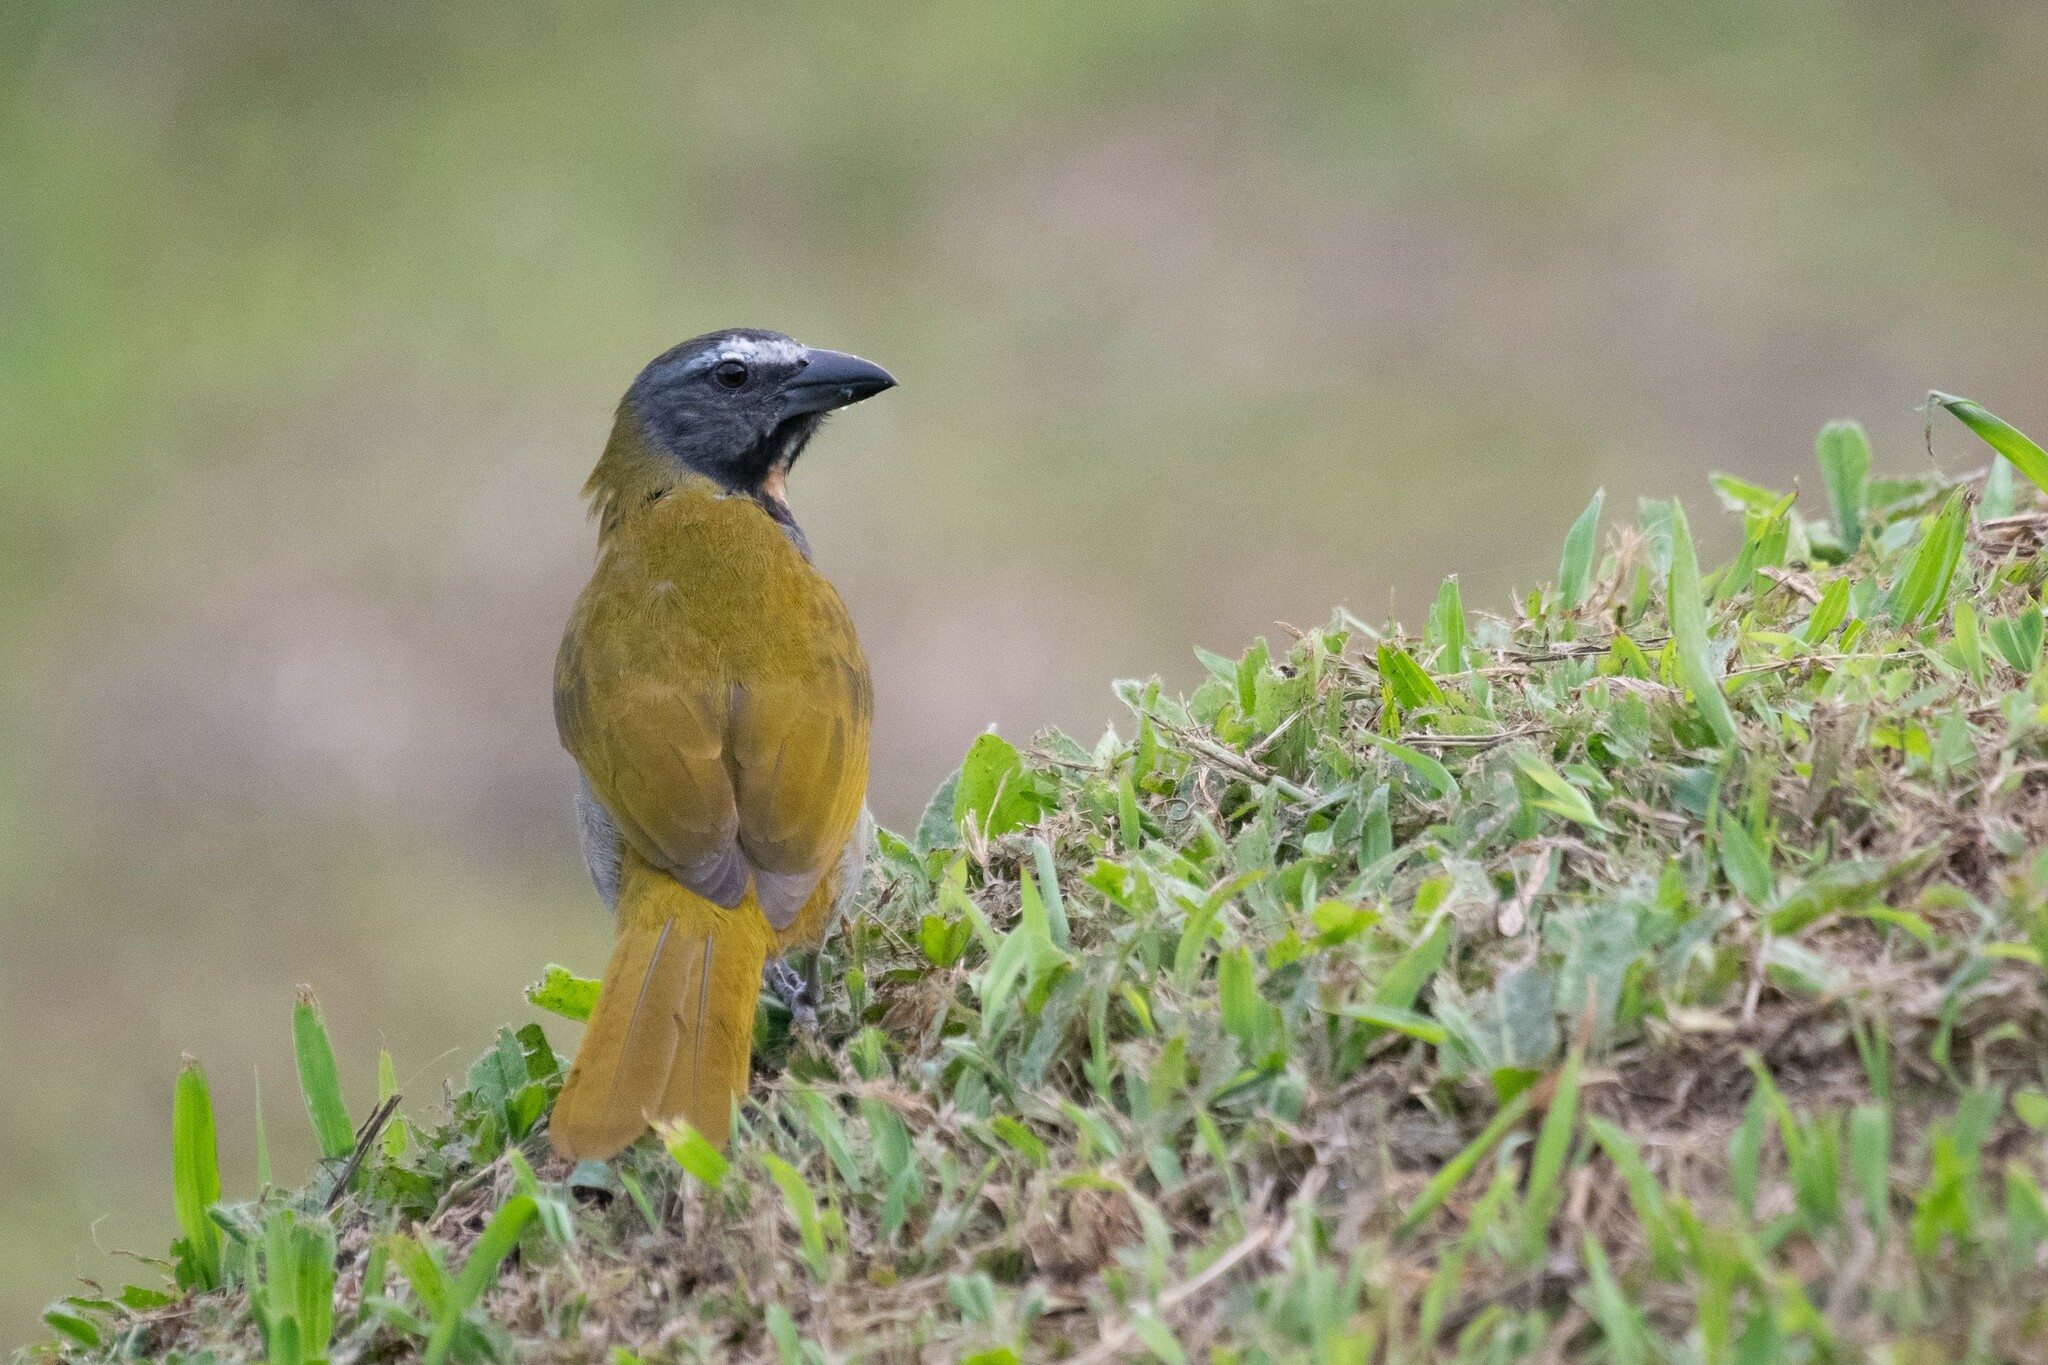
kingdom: Animalia
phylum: Chordata
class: Aves
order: Passeriformes
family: Thraupidae
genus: Saltator
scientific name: Saltator maximus
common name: Buff-throated saltator
